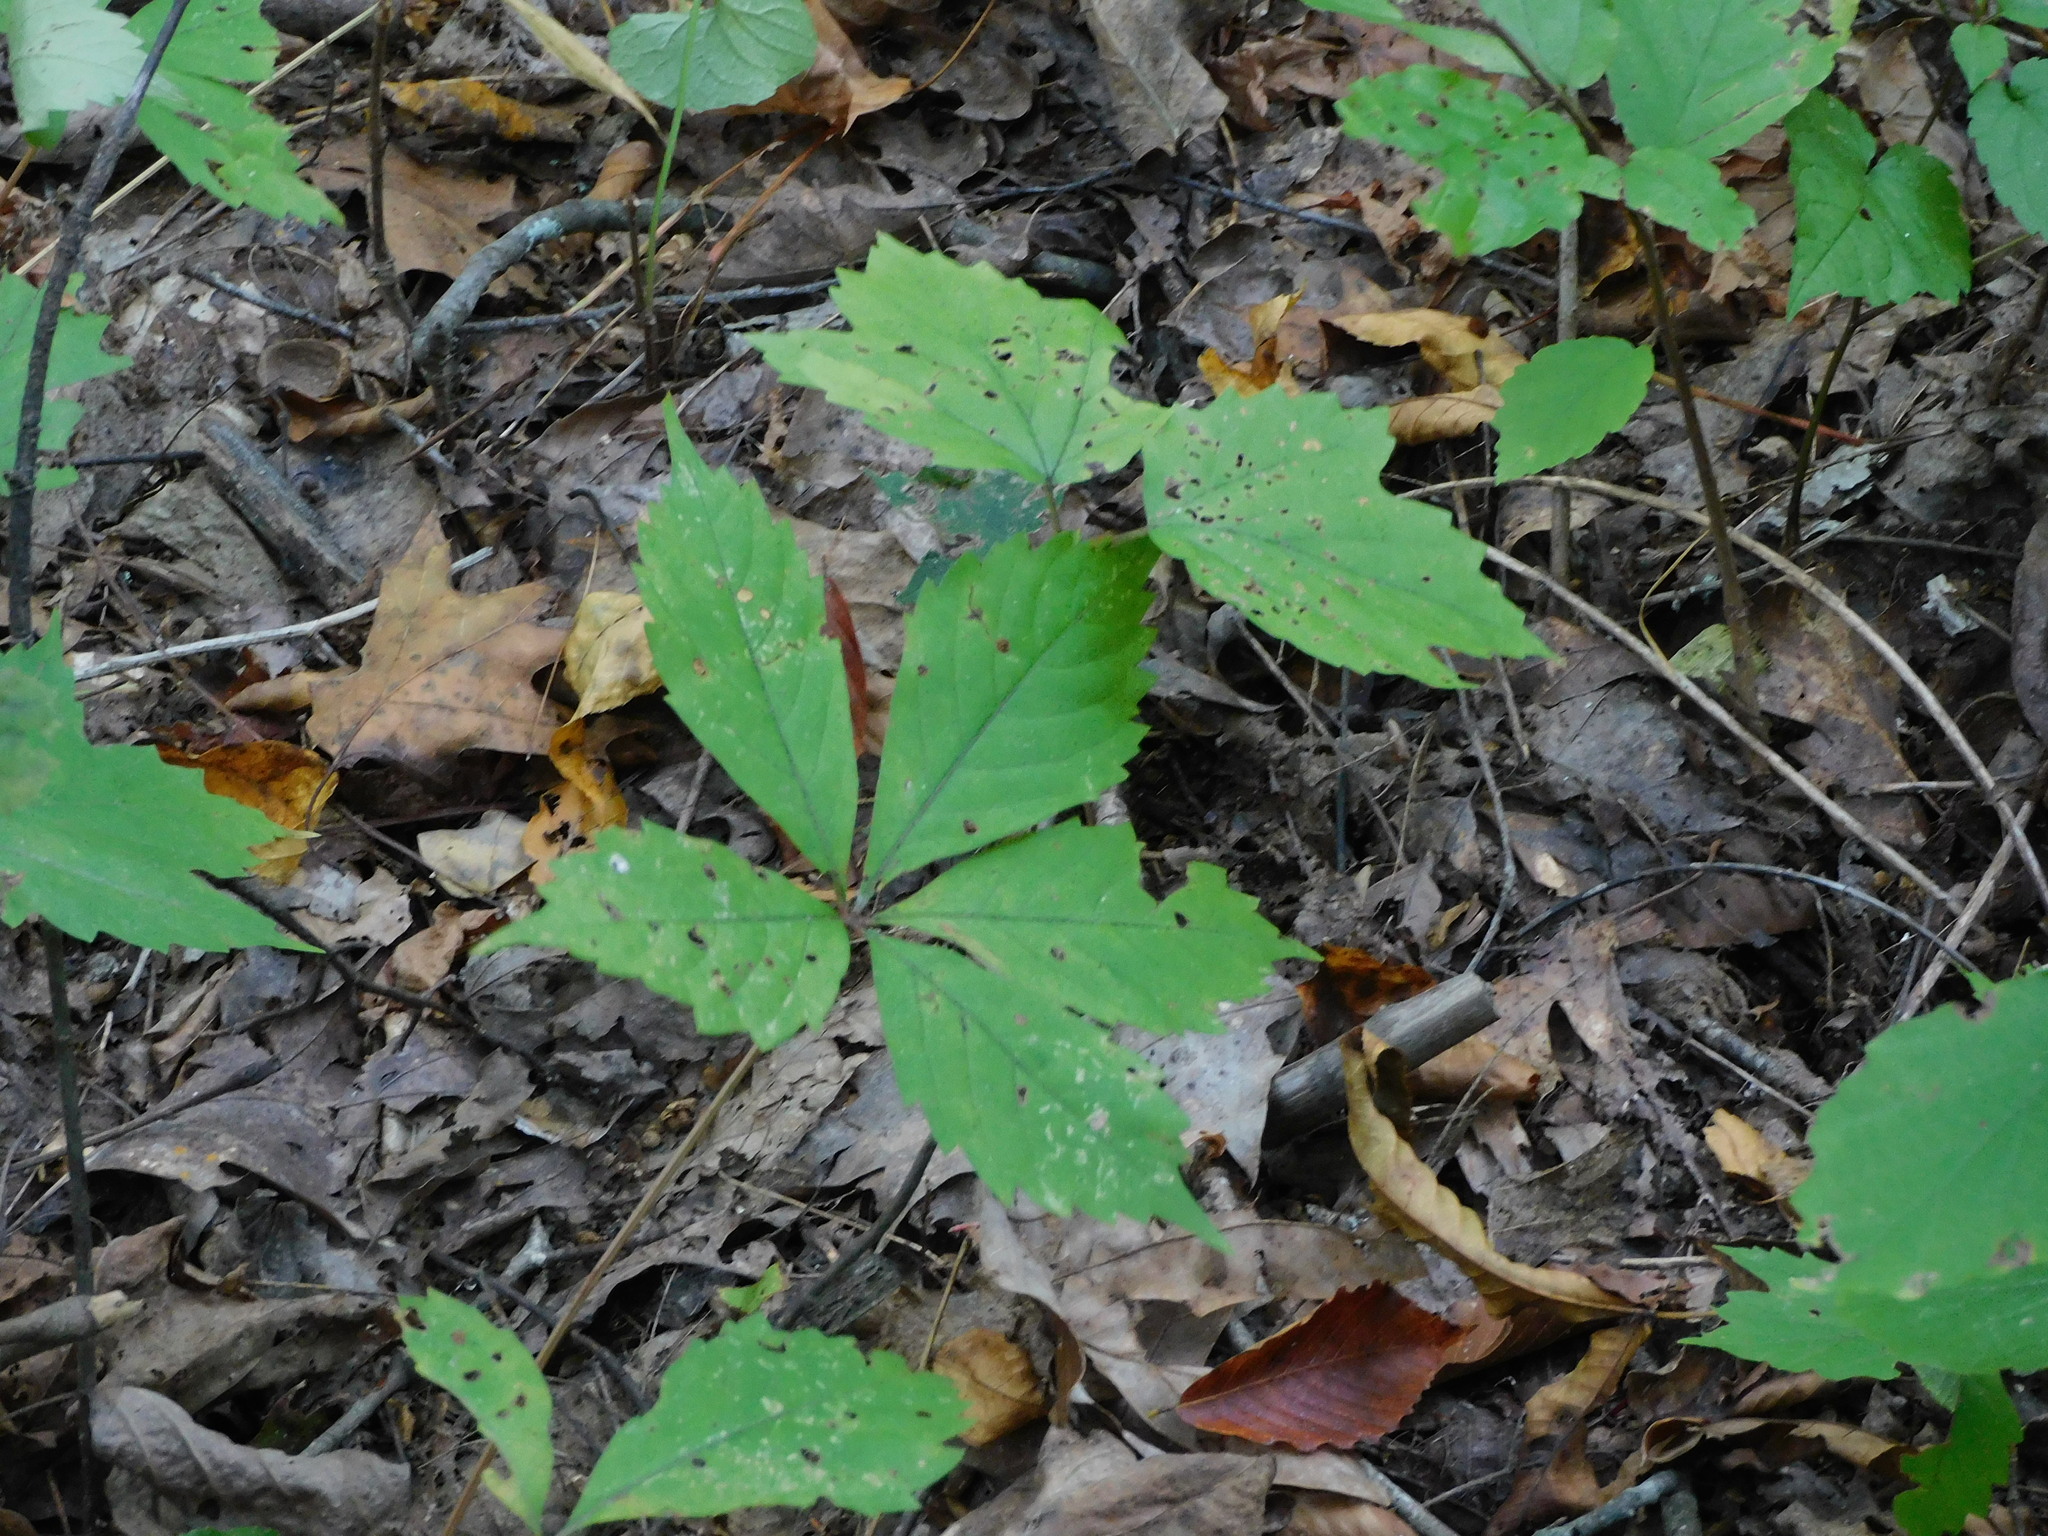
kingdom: Plantae
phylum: Tracheophyta
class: Magnoliopsida
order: Vitales
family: Vitaceae
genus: Parthenocissus
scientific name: Parthenocissus quinquefolia
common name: Virginia-creeper
